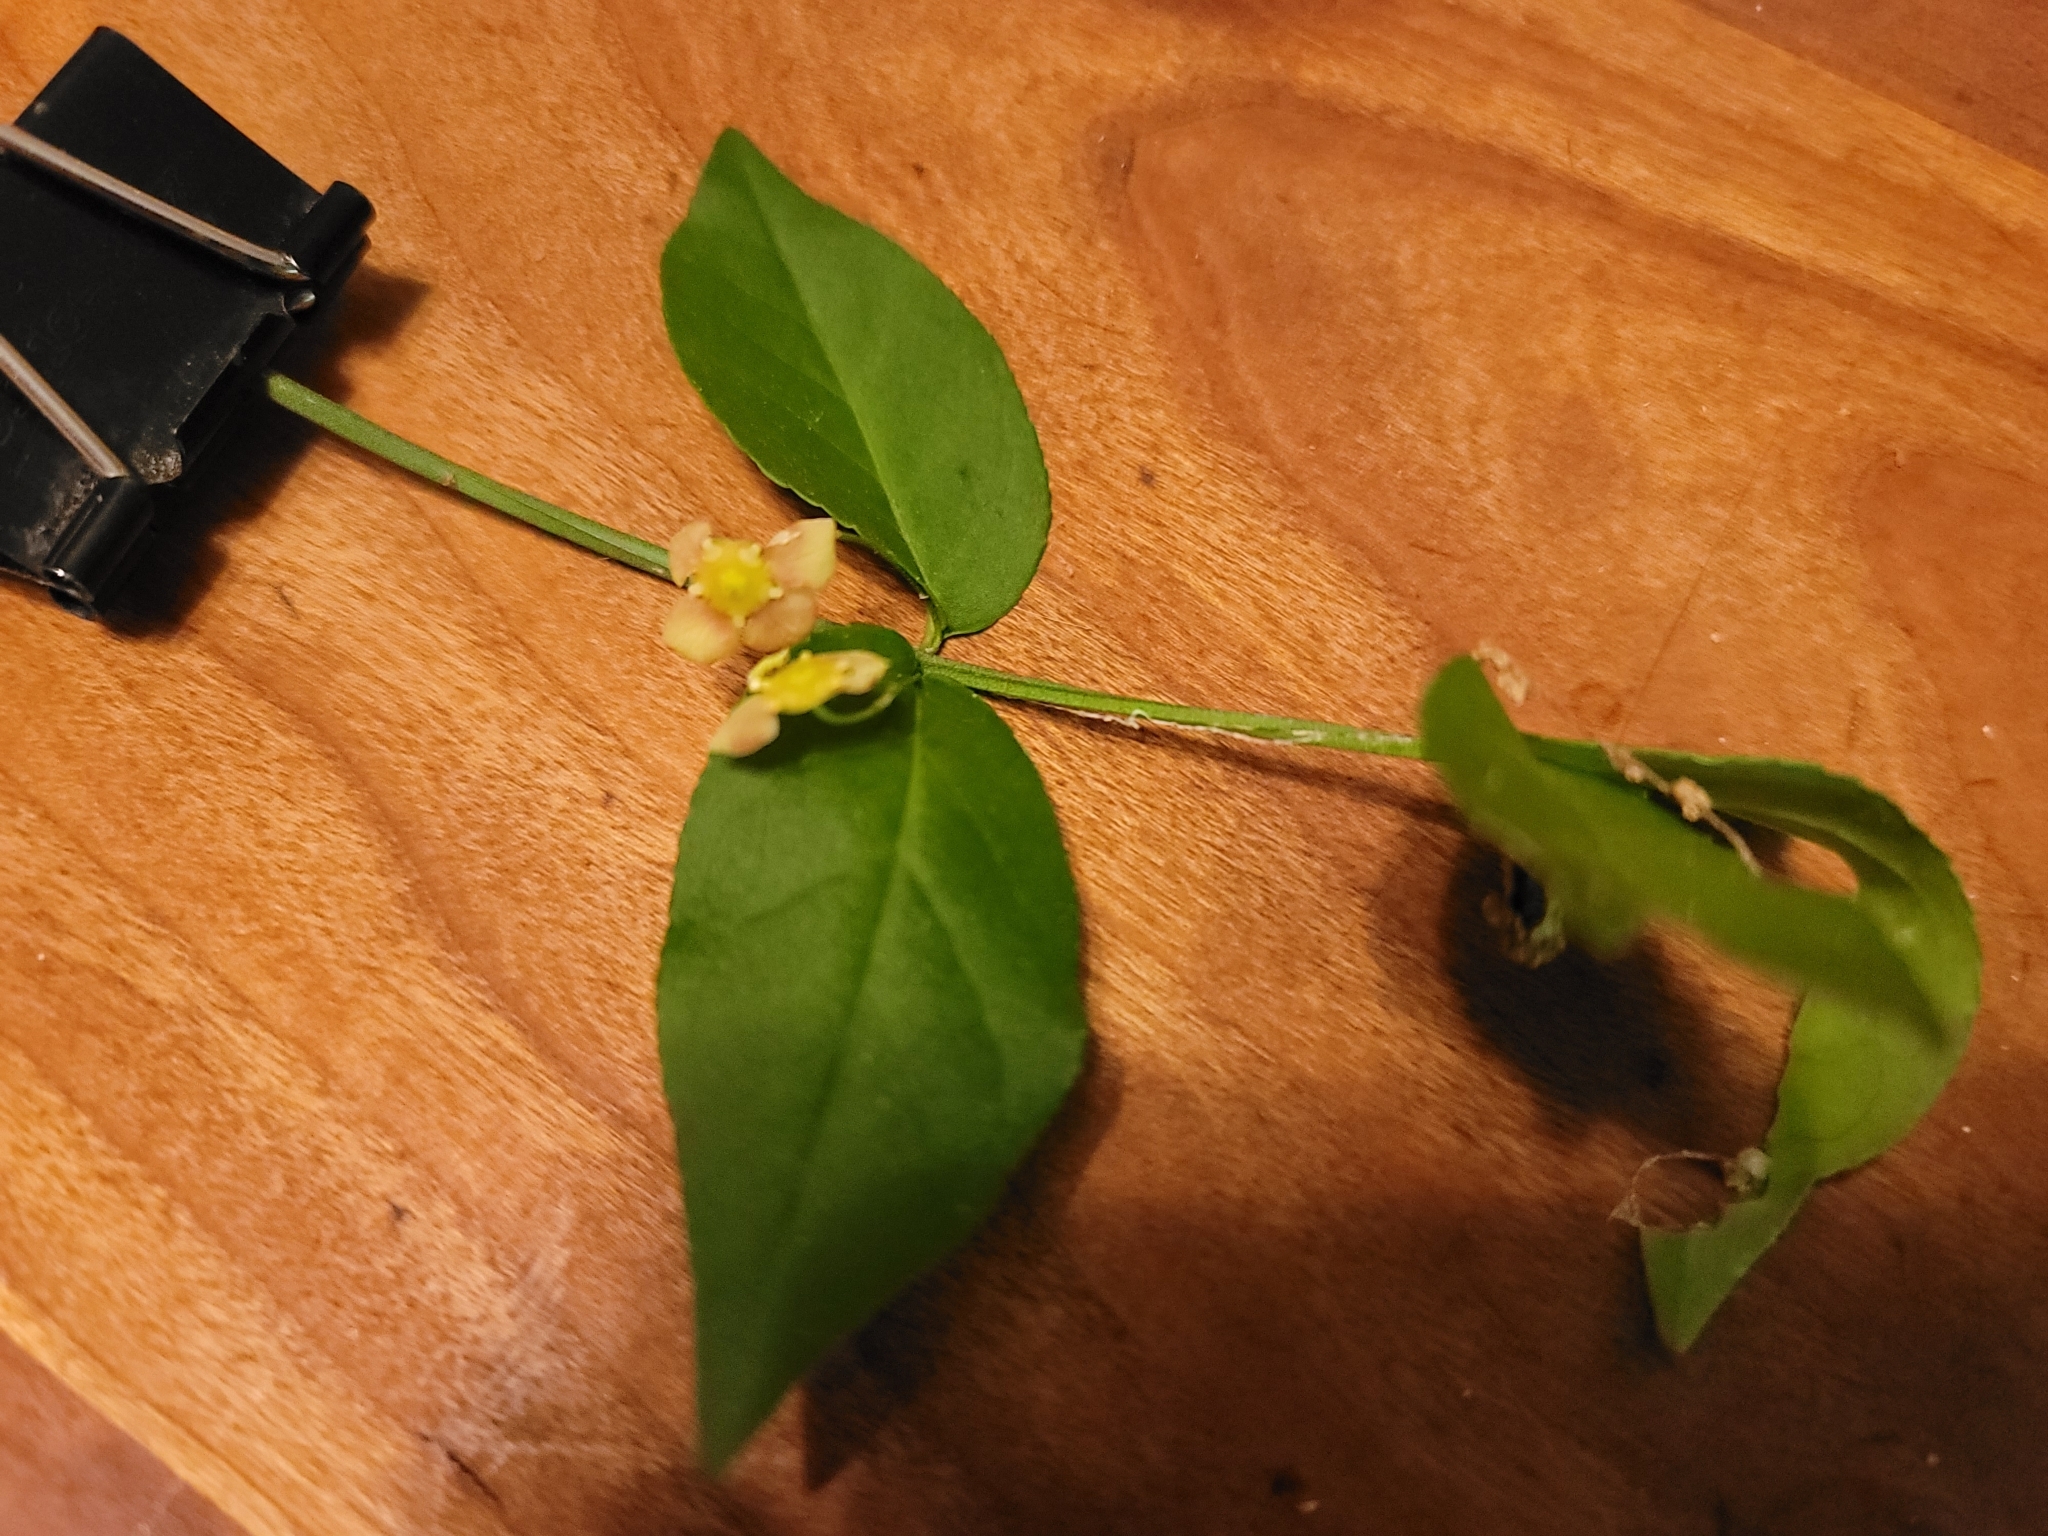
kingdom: Plantae
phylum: Tracheophyta
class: Magnoliopsida
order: Celastrales
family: Celastraceae
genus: Euonymus
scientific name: Euonymus americanus
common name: Bursting-heart
